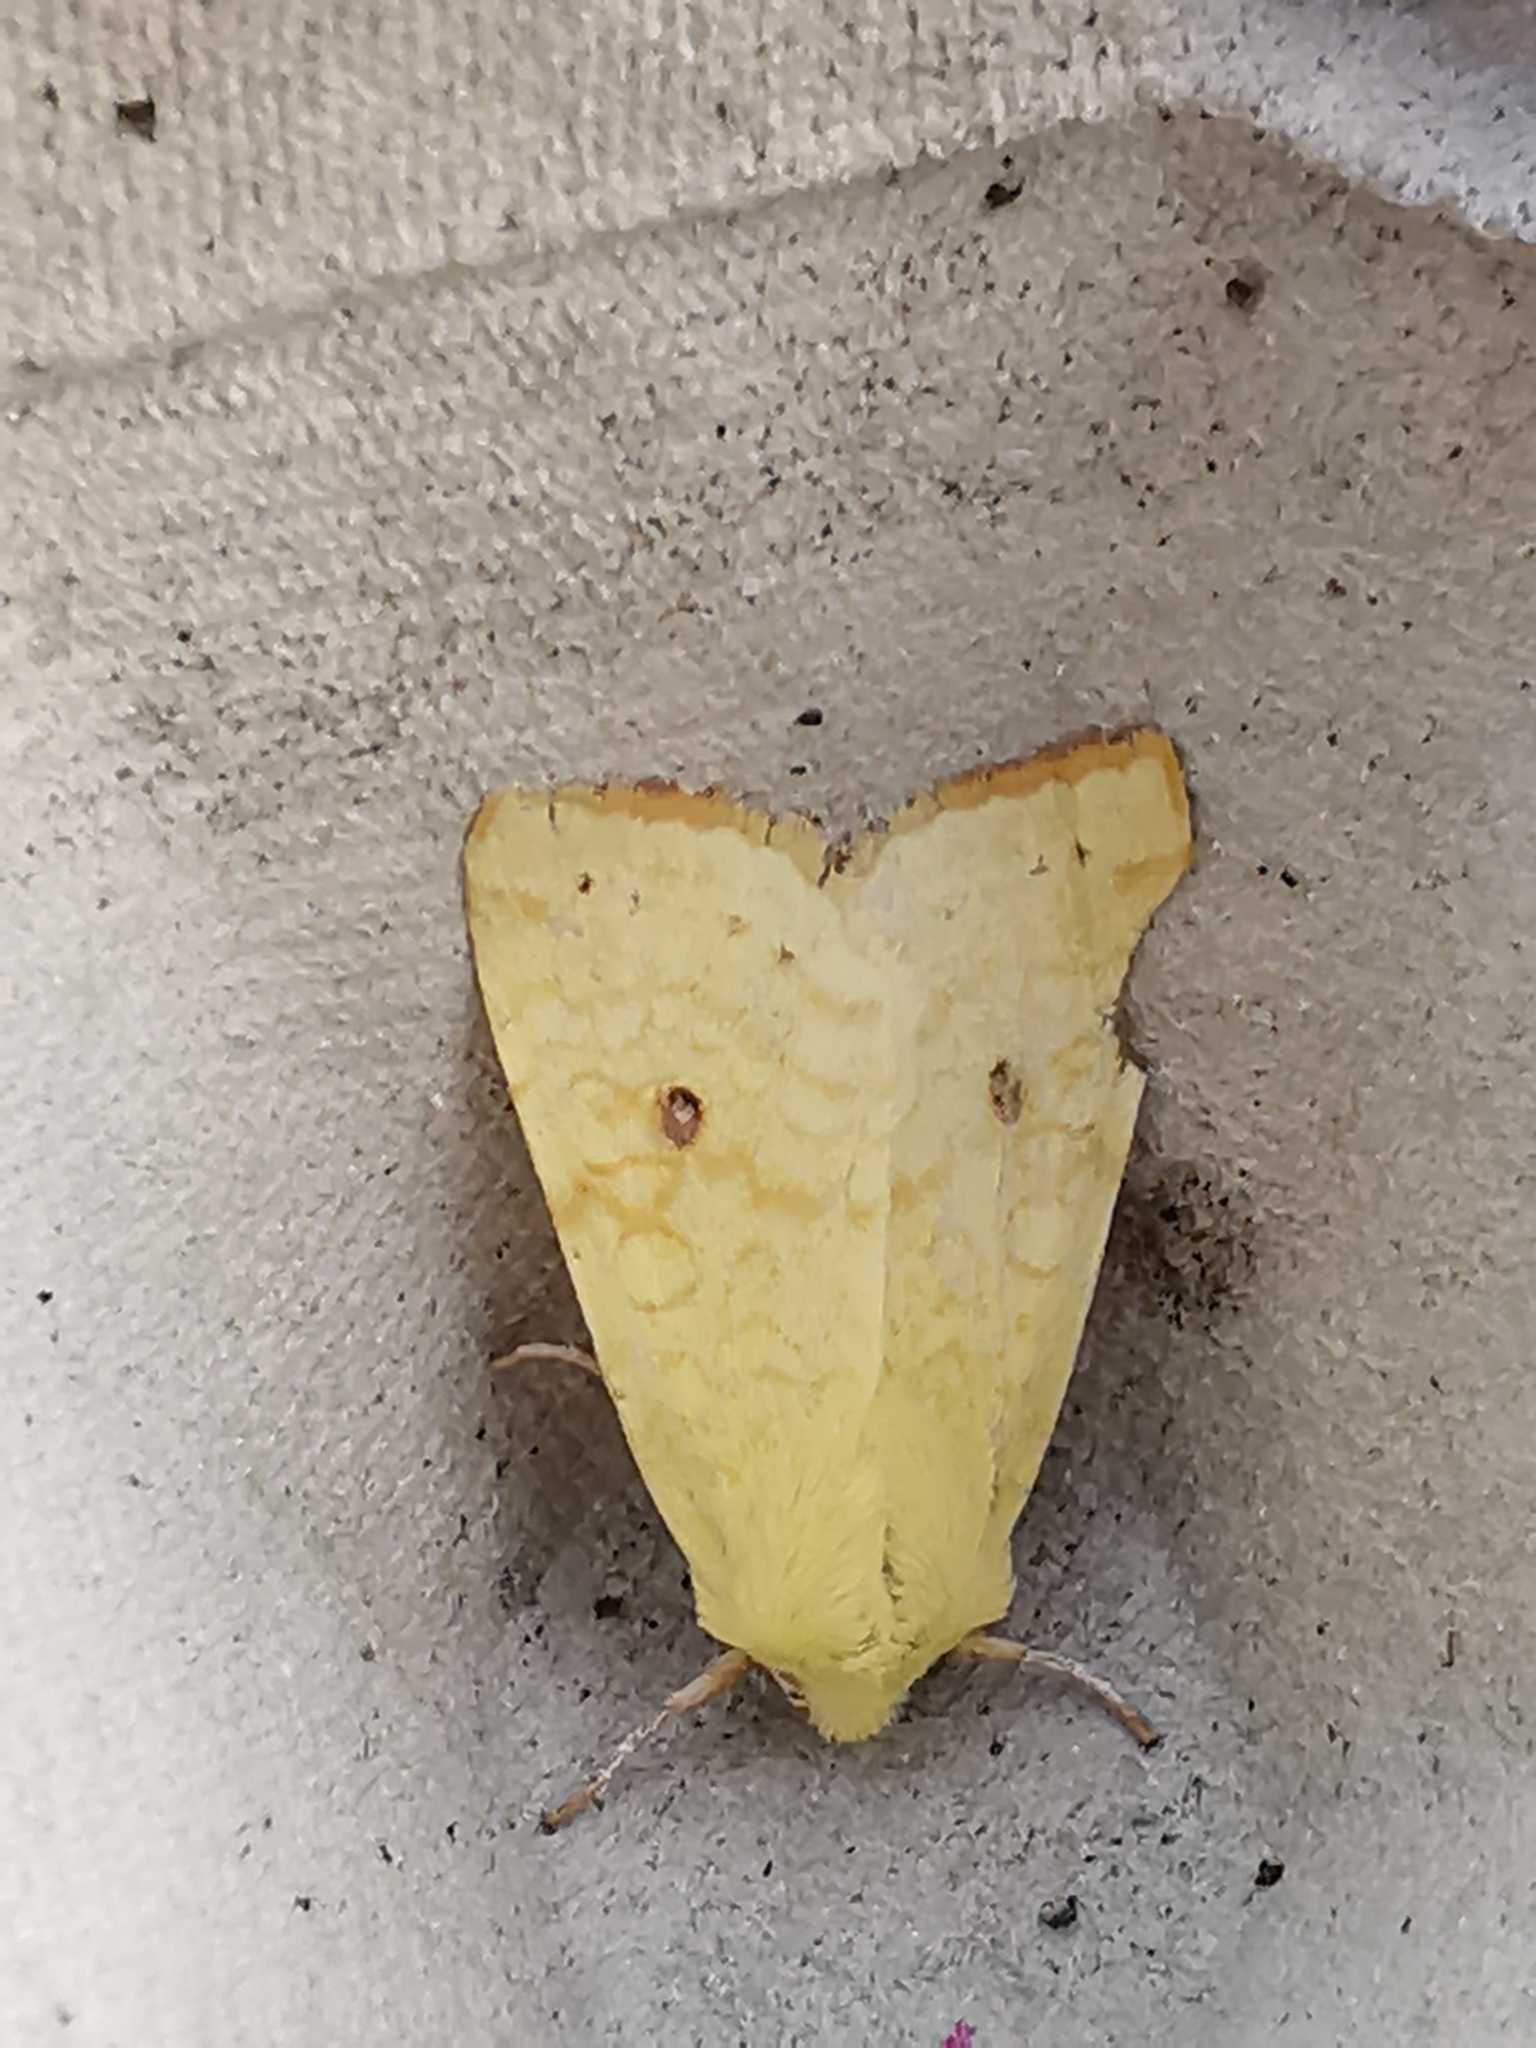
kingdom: Animalia
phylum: Arthropoda
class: Insecta
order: Lepidoptera
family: Noctuidae
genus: Xanthia
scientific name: Xanthia icteritia
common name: The sallow
